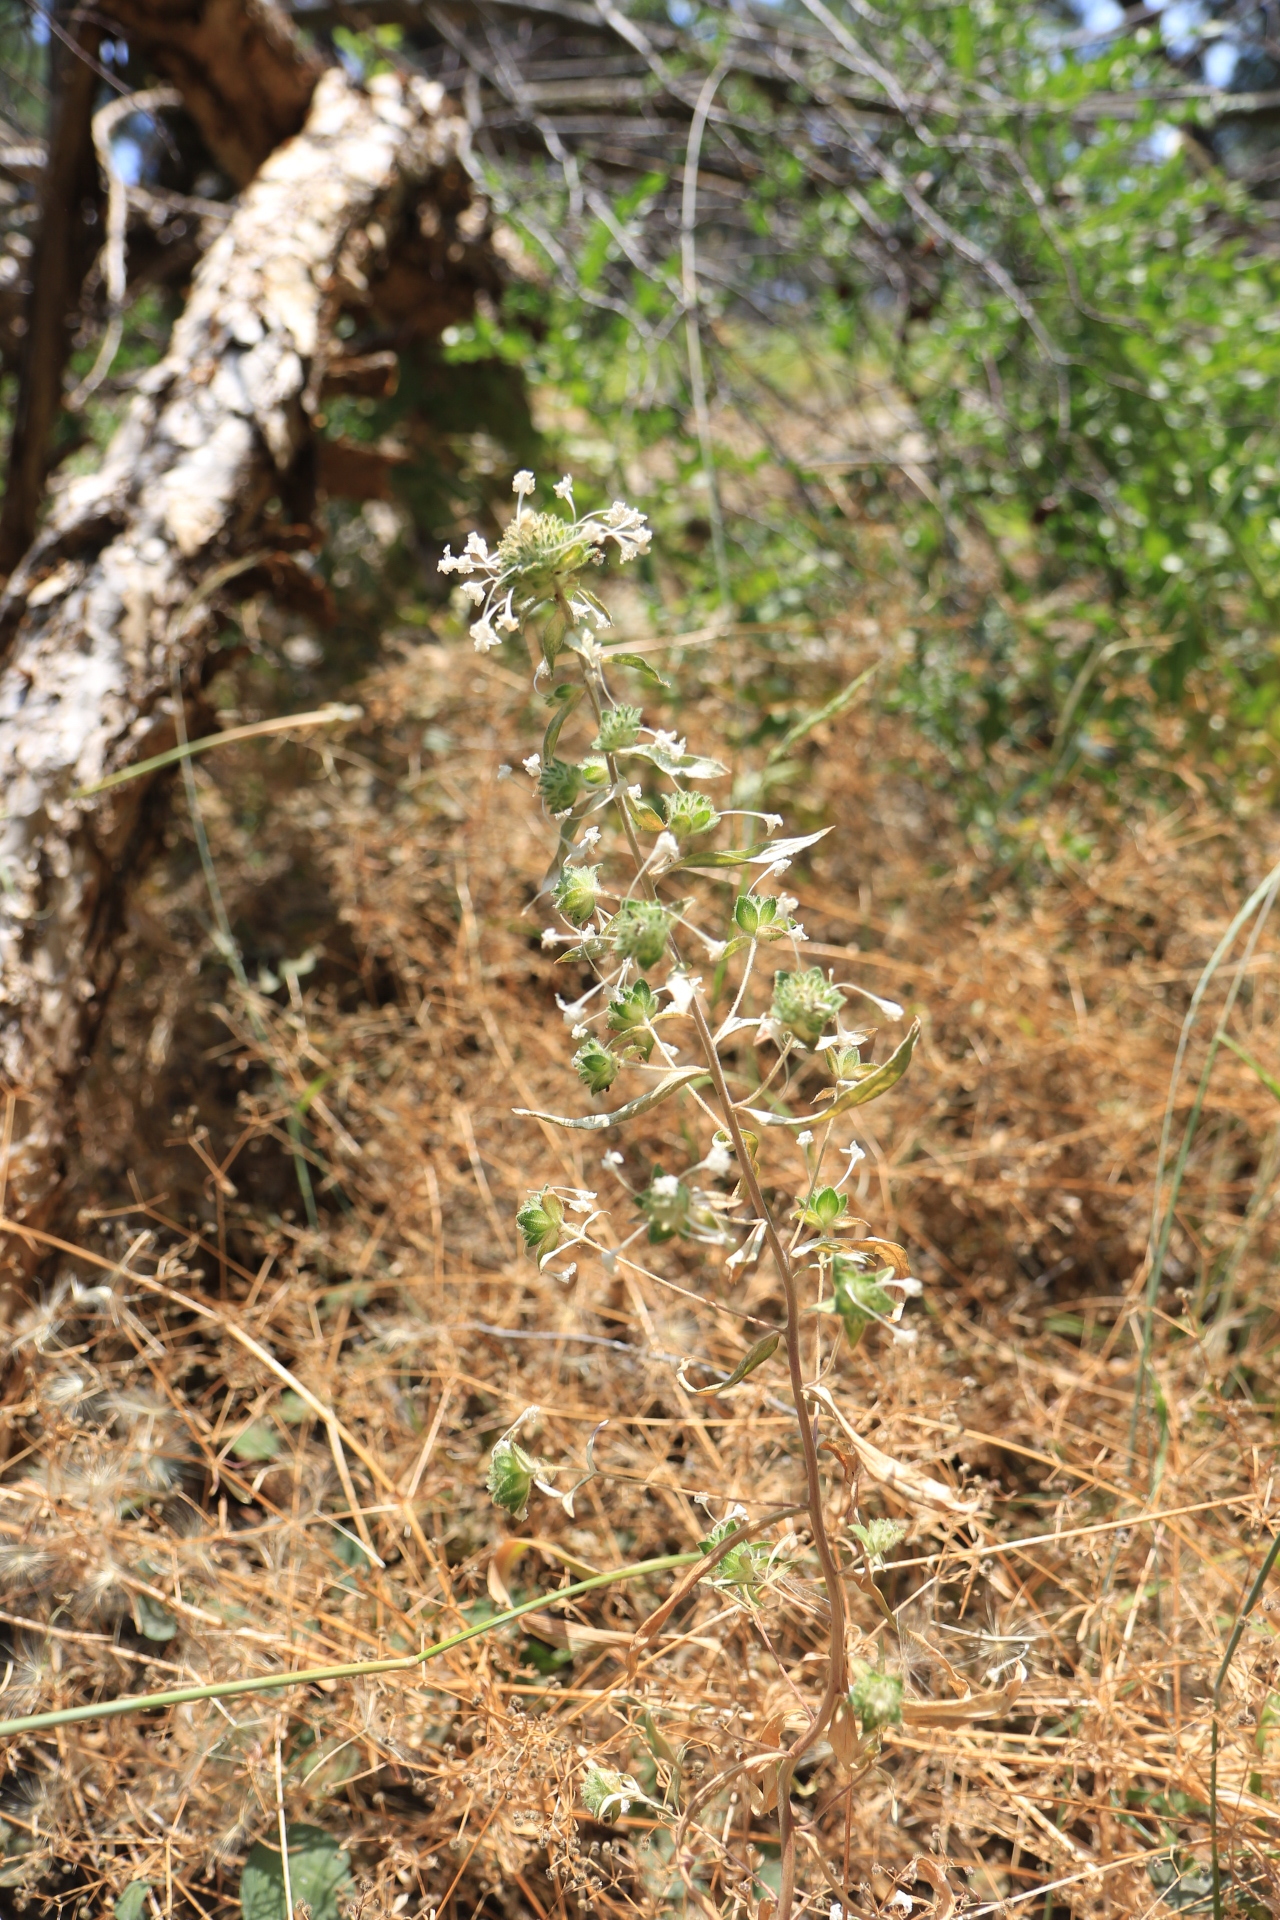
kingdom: Plantae
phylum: Tracheophyta
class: Magnoliopsida
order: Ericales
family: Polemoniaceae
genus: Collomia
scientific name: Collomia grandiflora
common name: California strawflower
